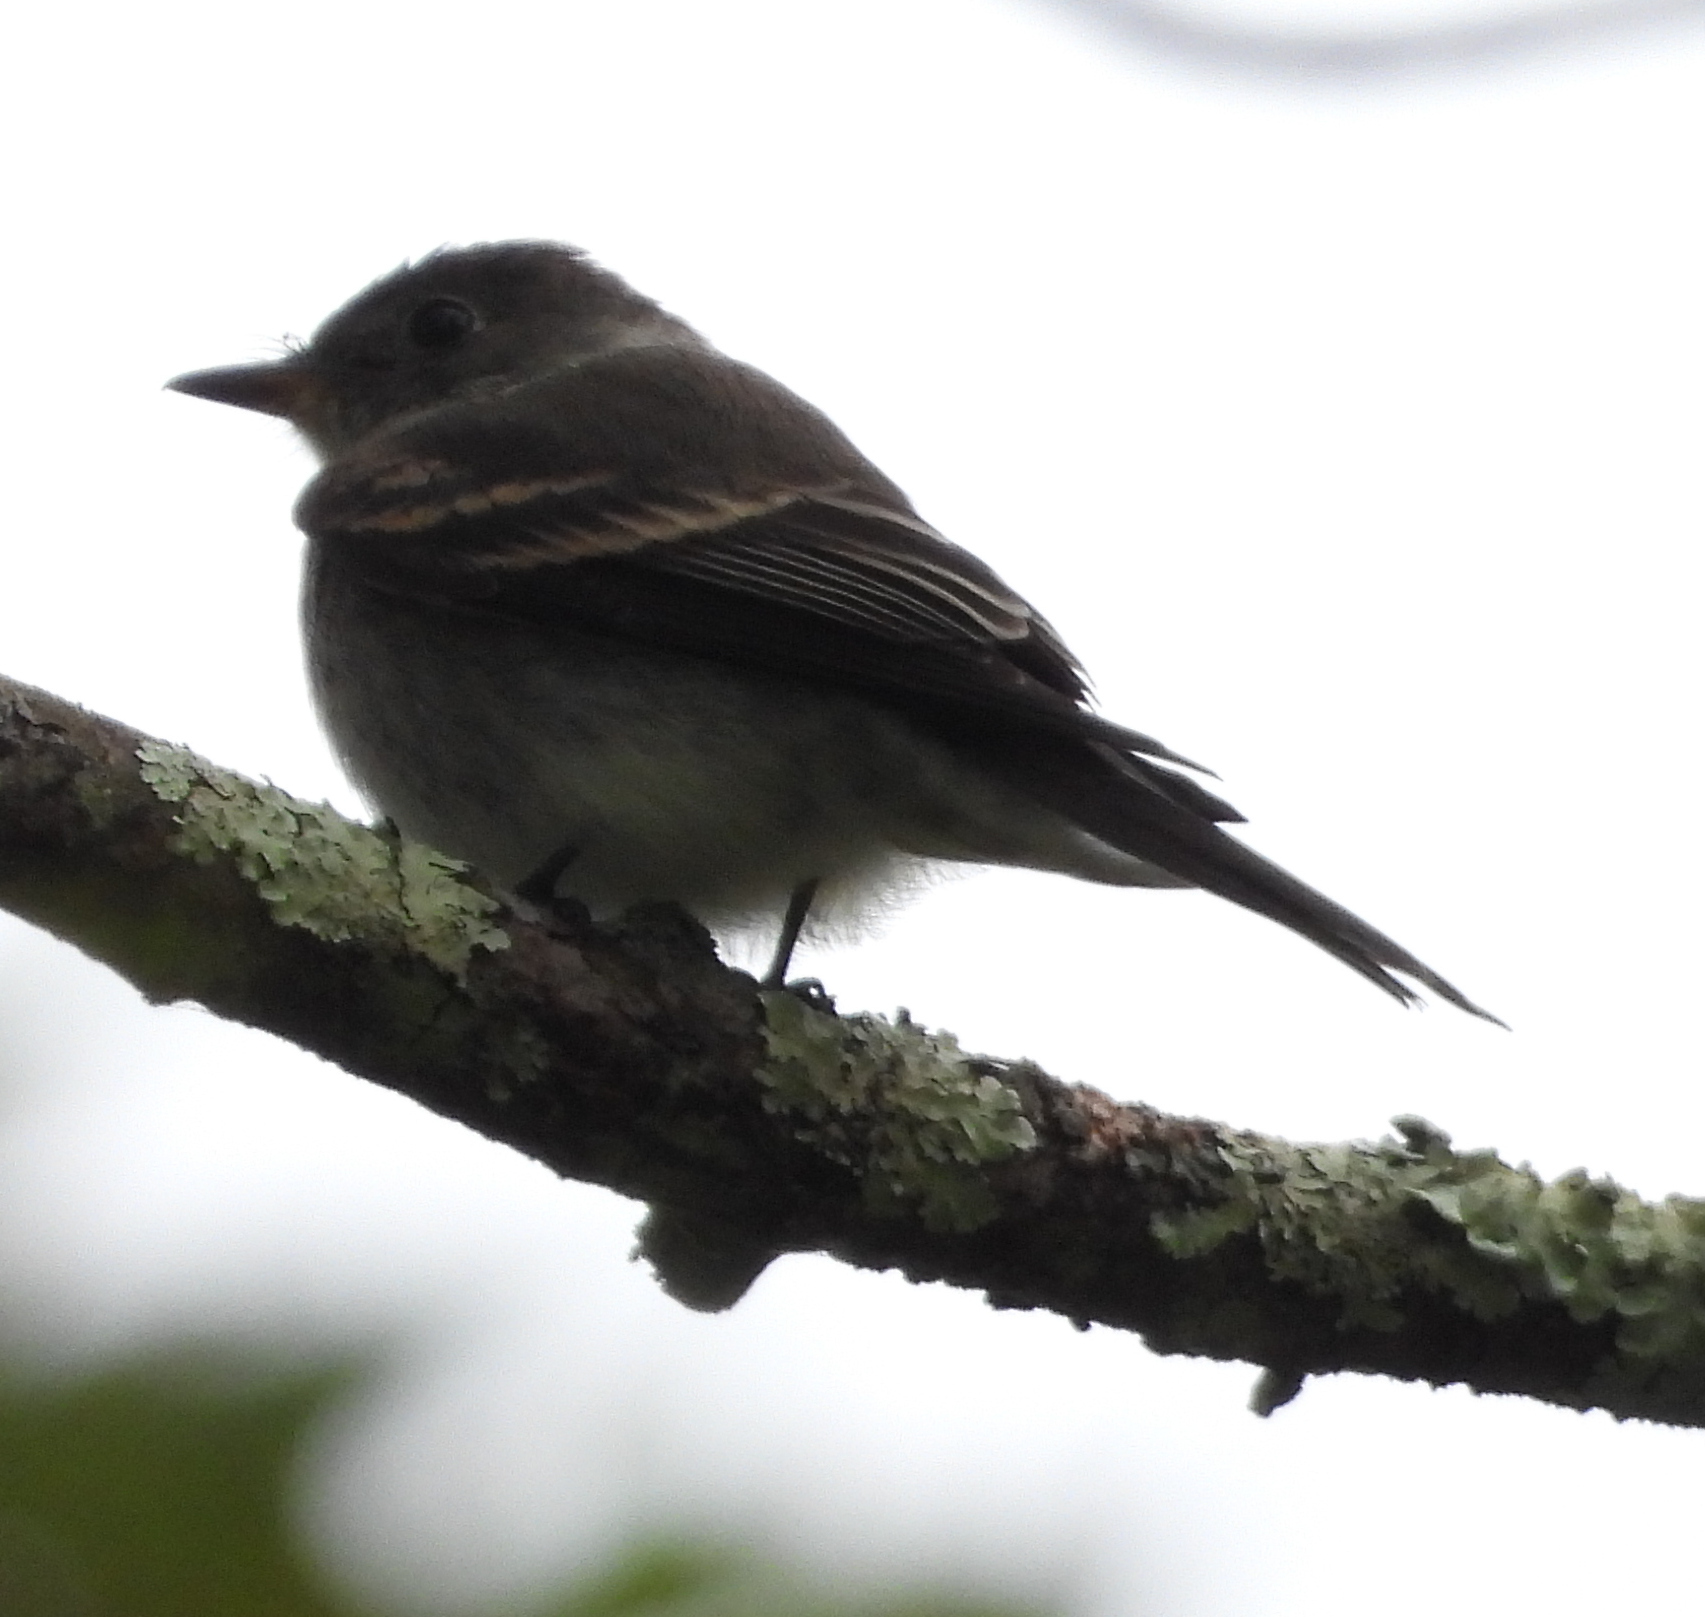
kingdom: Animalia
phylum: Chordata
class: Aves
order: Passeriformes
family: Tyrannidae
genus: Contopus
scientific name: Contopus virens
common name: Eastern wood-pewee
